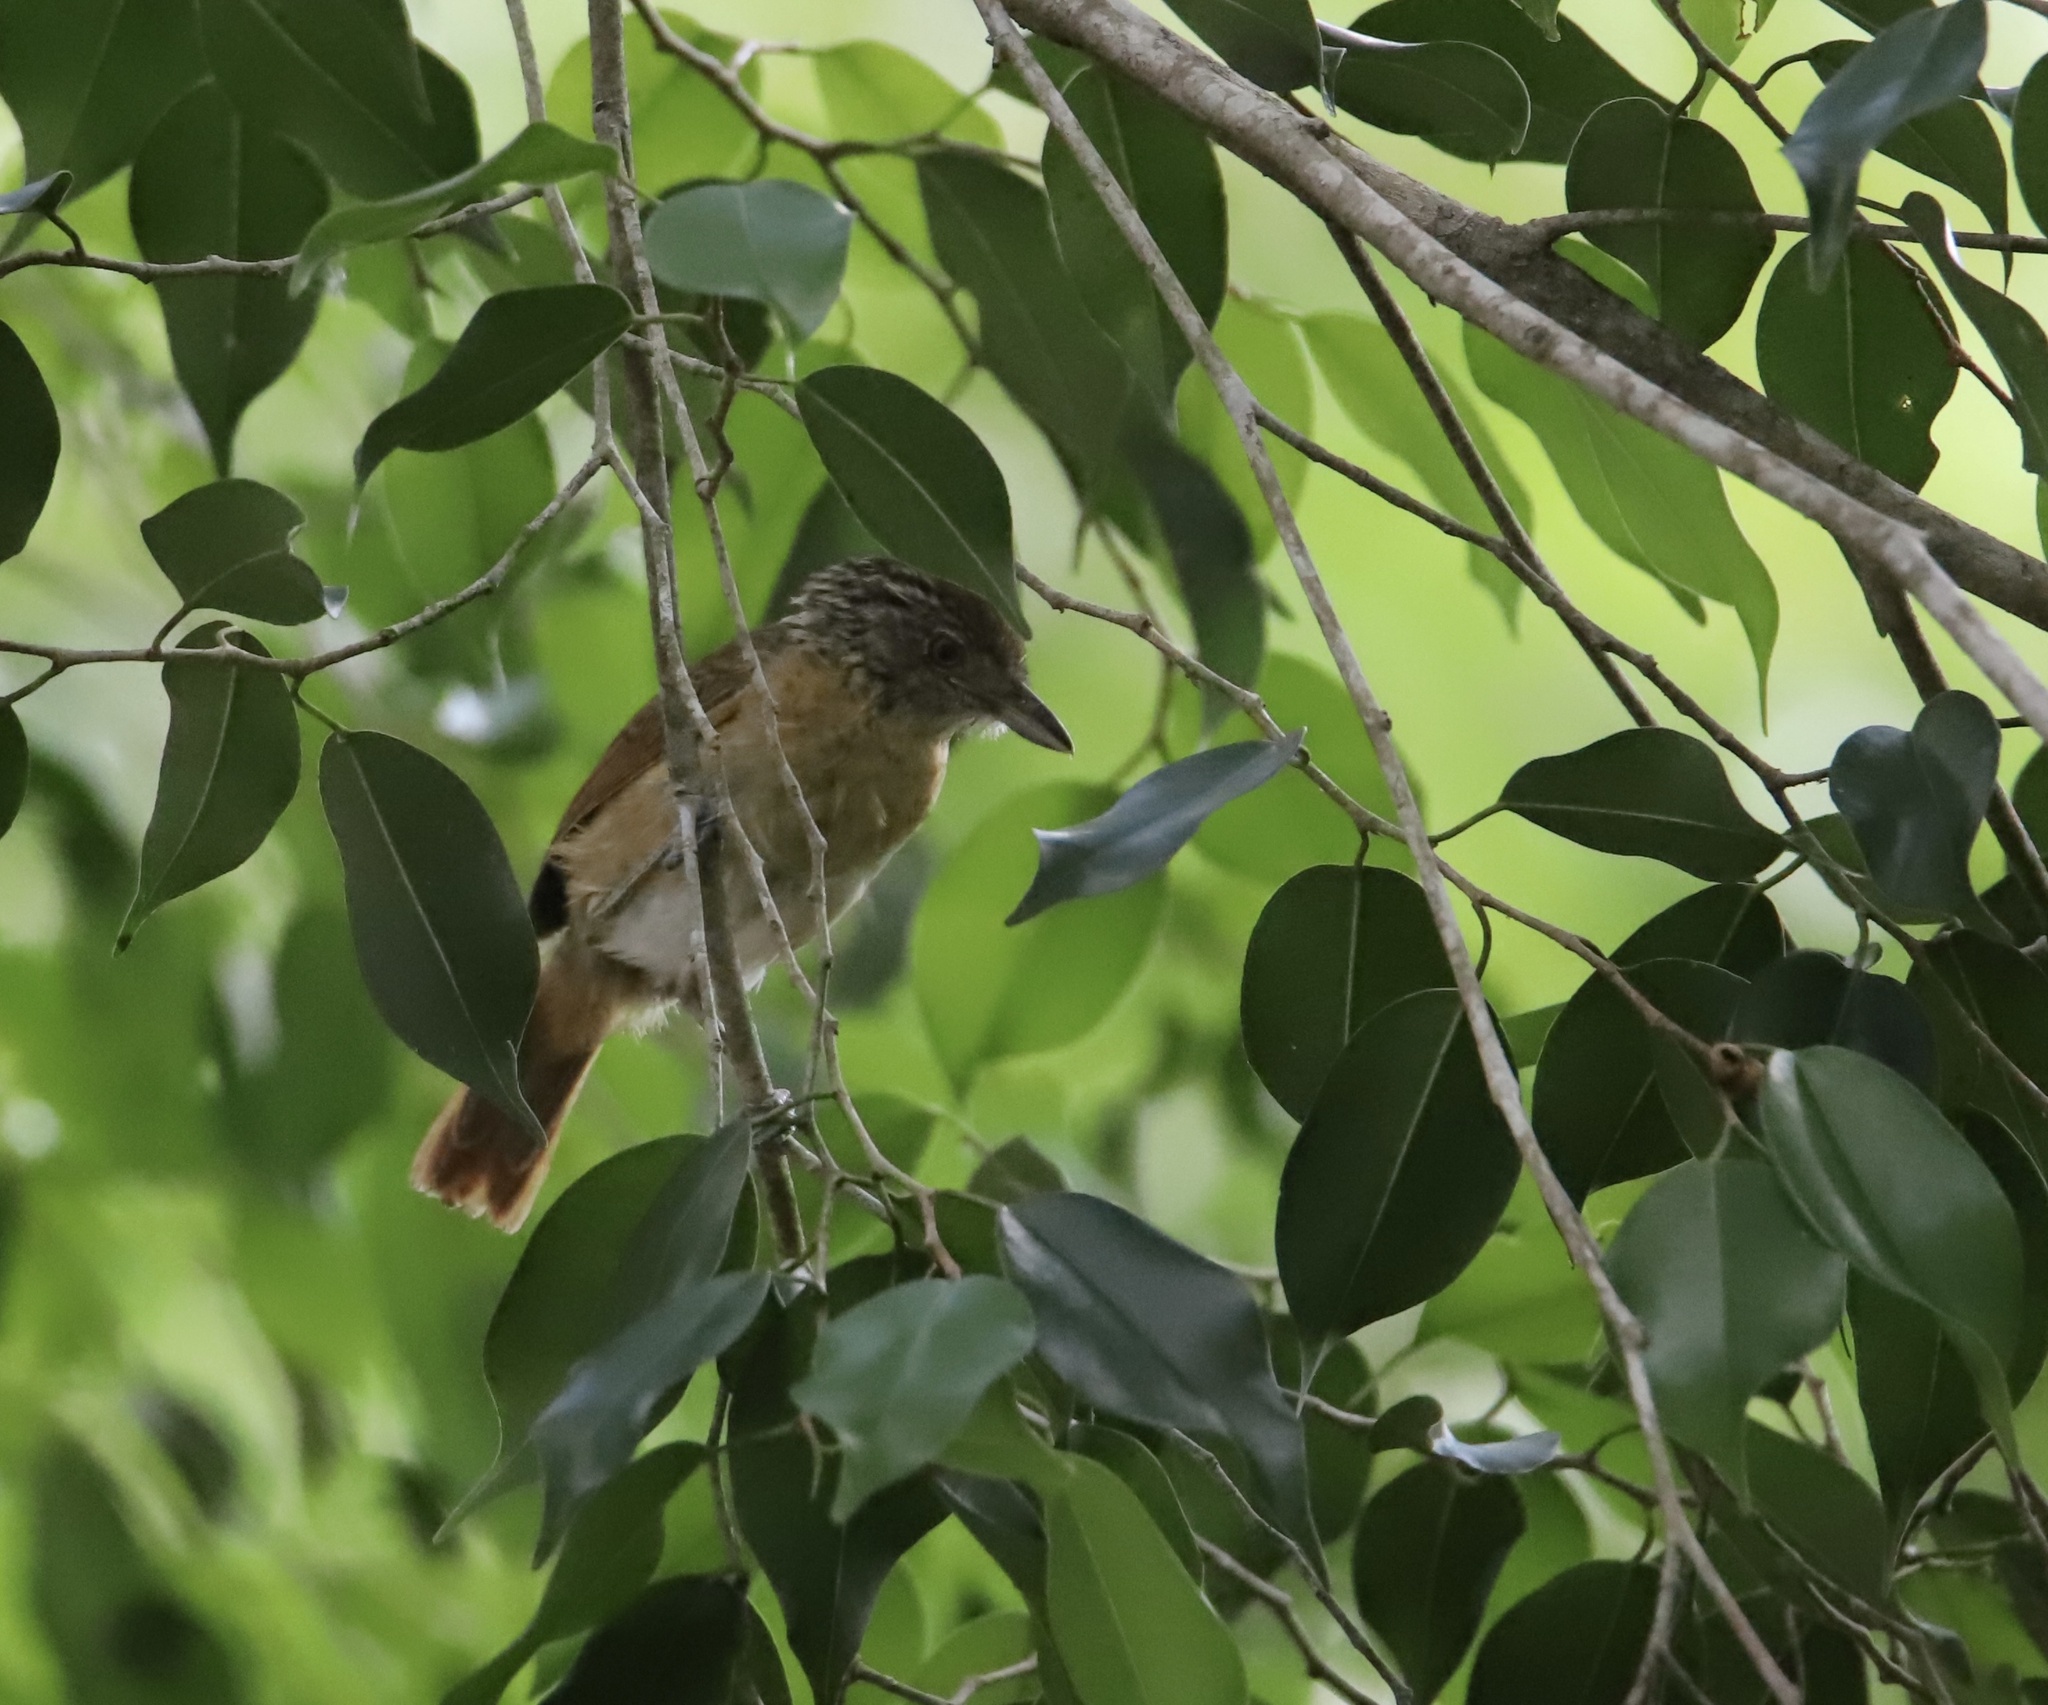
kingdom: Animalia
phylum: Chordata
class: Aves
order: Passeriformes
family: Thamnophilidae
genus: Thamnophilus
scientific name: Thamnophilus doliatus
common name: Barred antshrike
